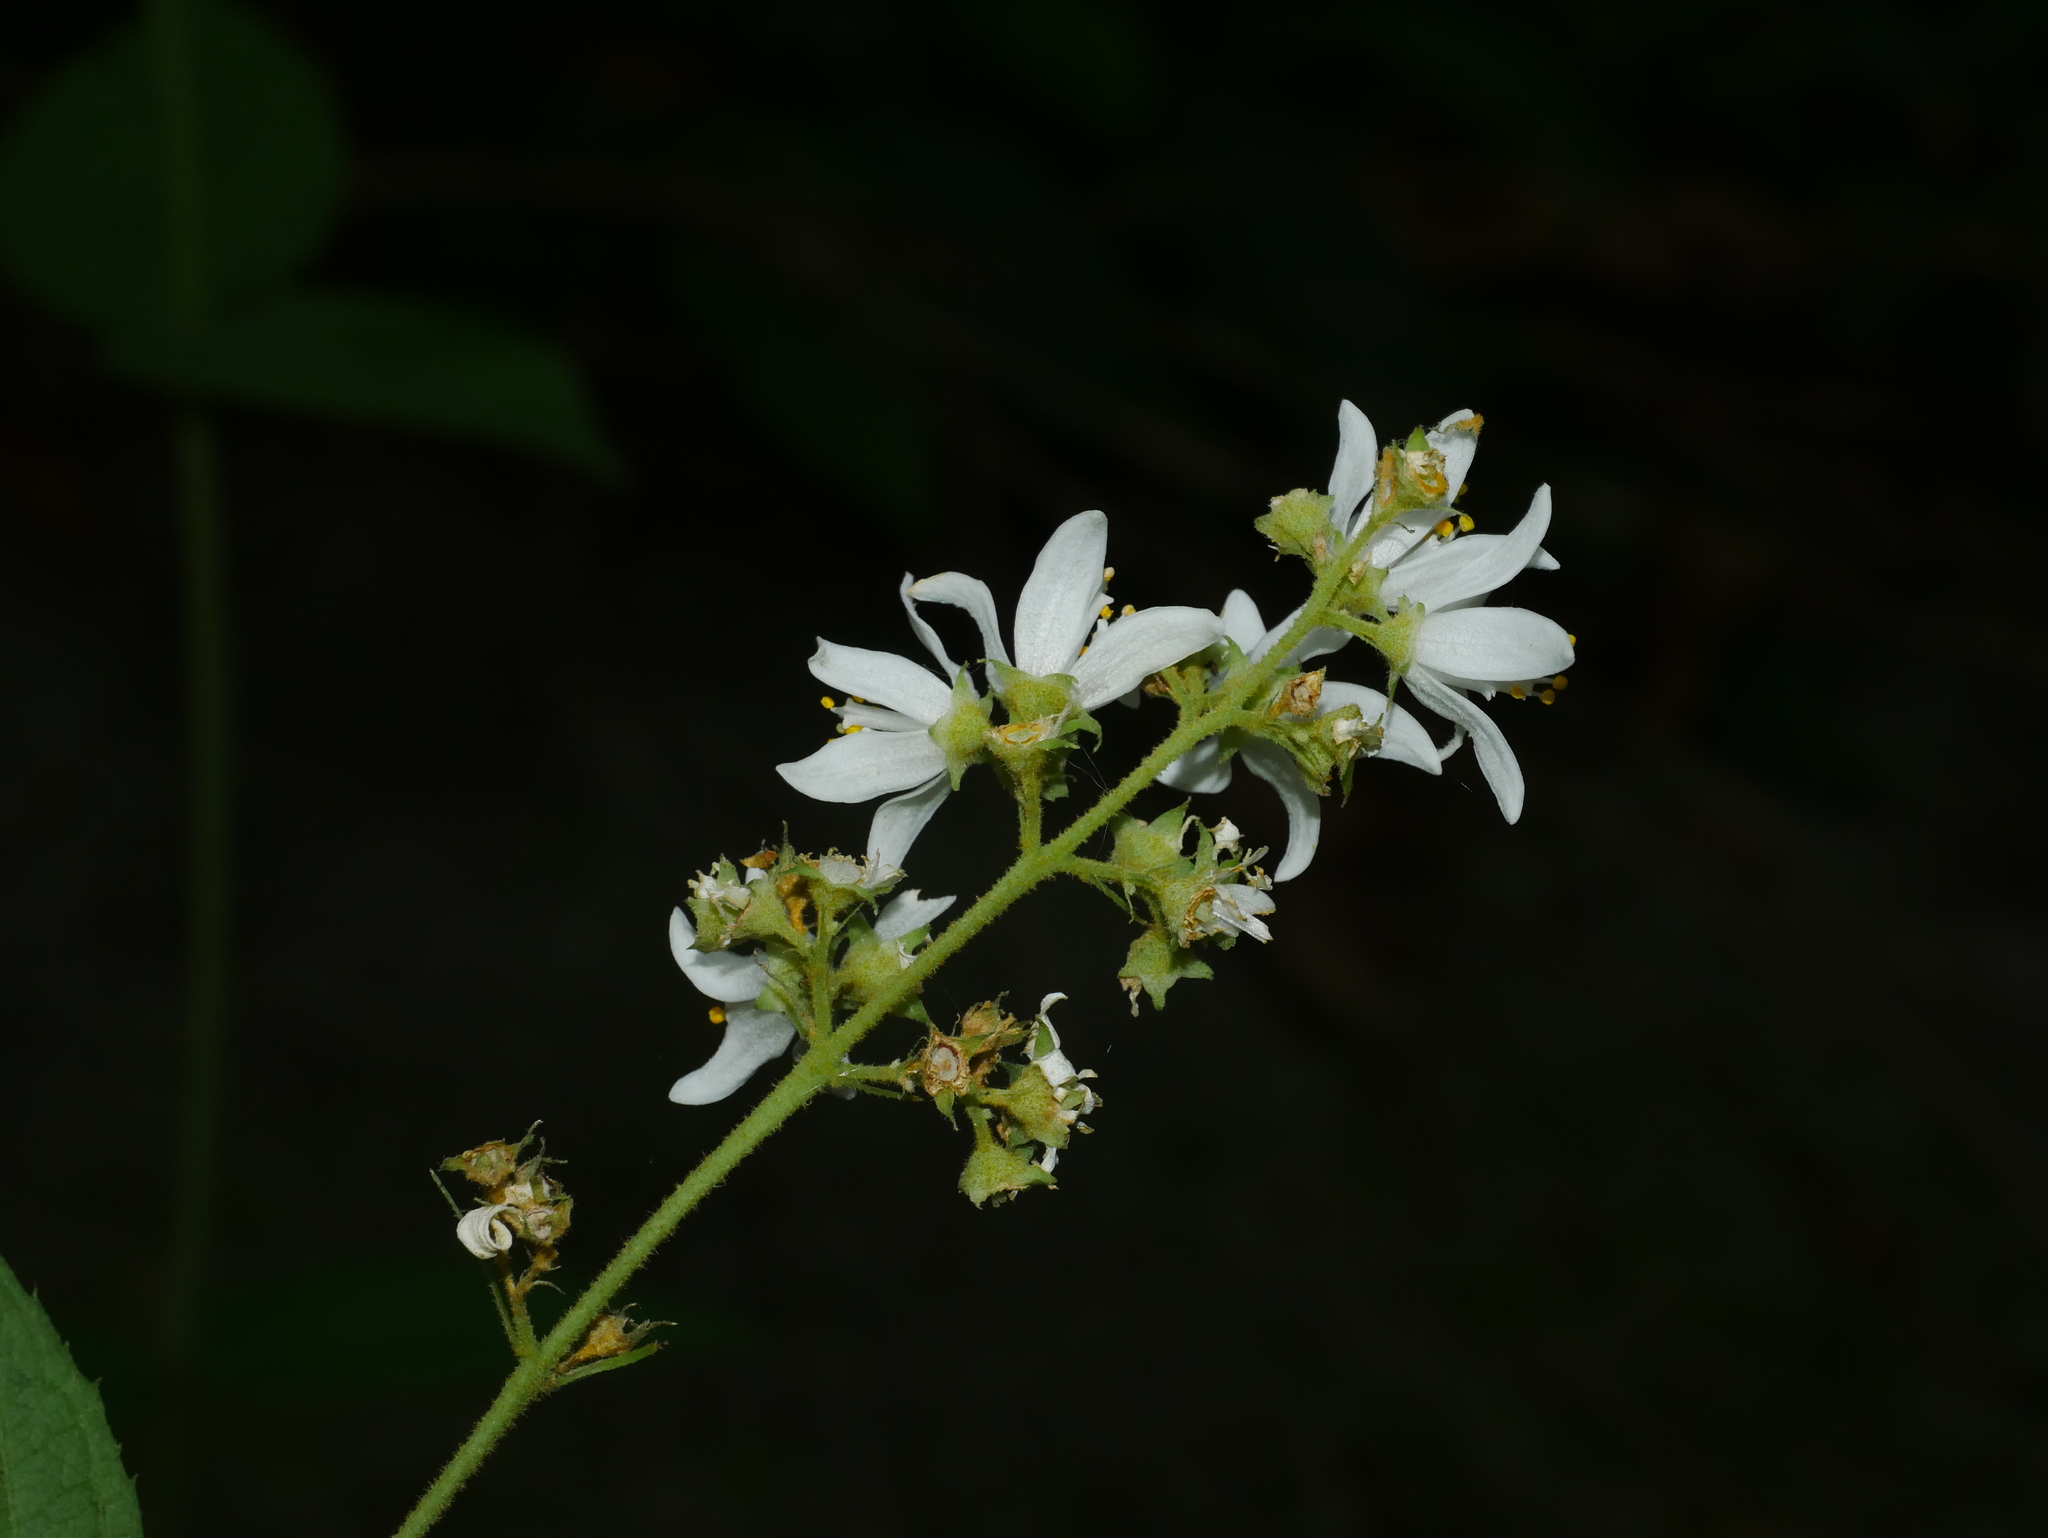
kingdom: Plantae
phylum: Tracheophyta
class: Magnoliopsida
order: Cornales
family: Hydrangeaceae
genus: Deutzia
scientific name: Deutzia taiwanensis
